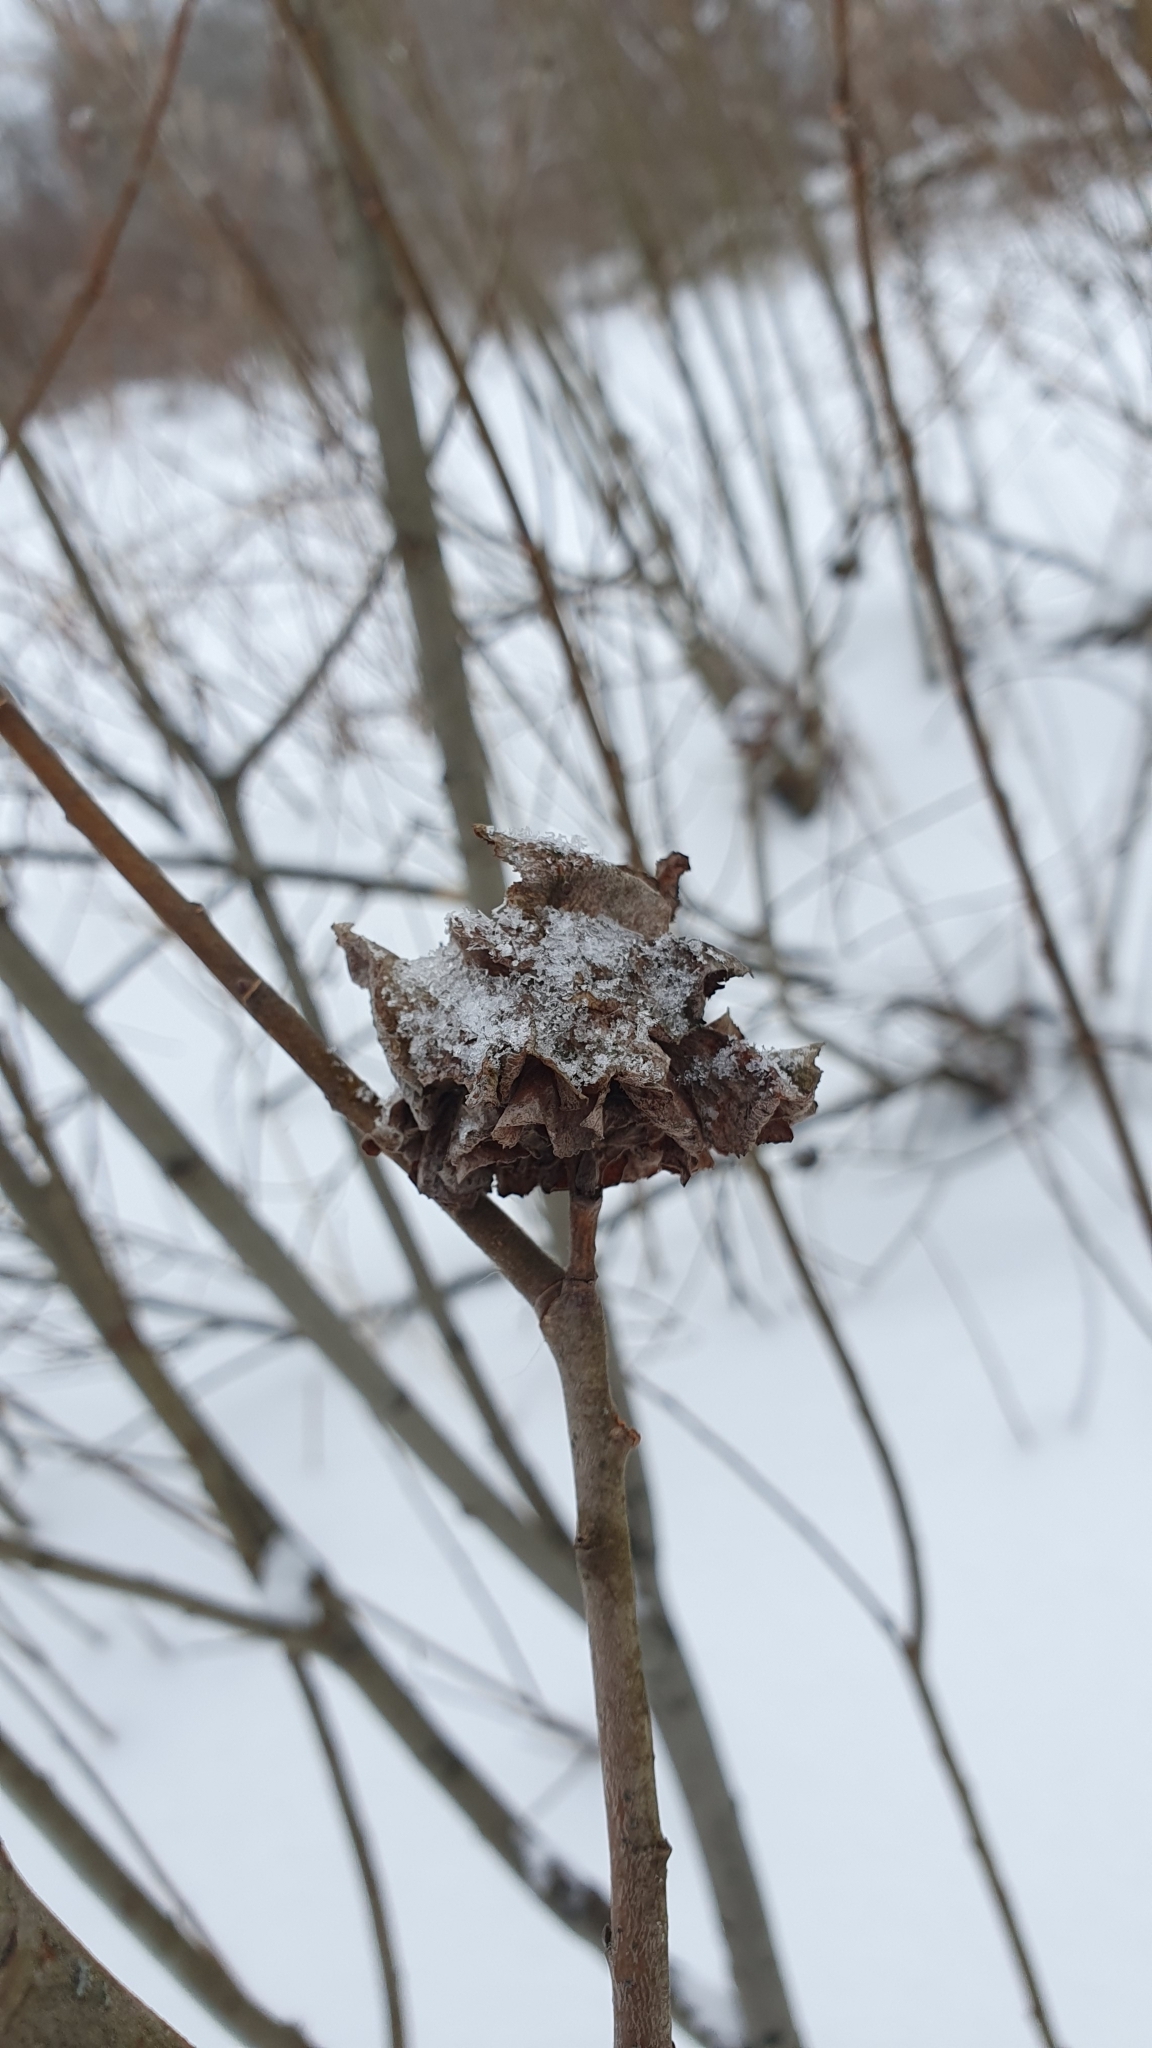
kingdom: Animalia
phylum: Arthropoda
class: Insecta
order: Diptera
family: Cecidomyiidae
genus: Rabdophaga
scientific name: Rabdophaga rosaria
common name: Willow rose gall midge
